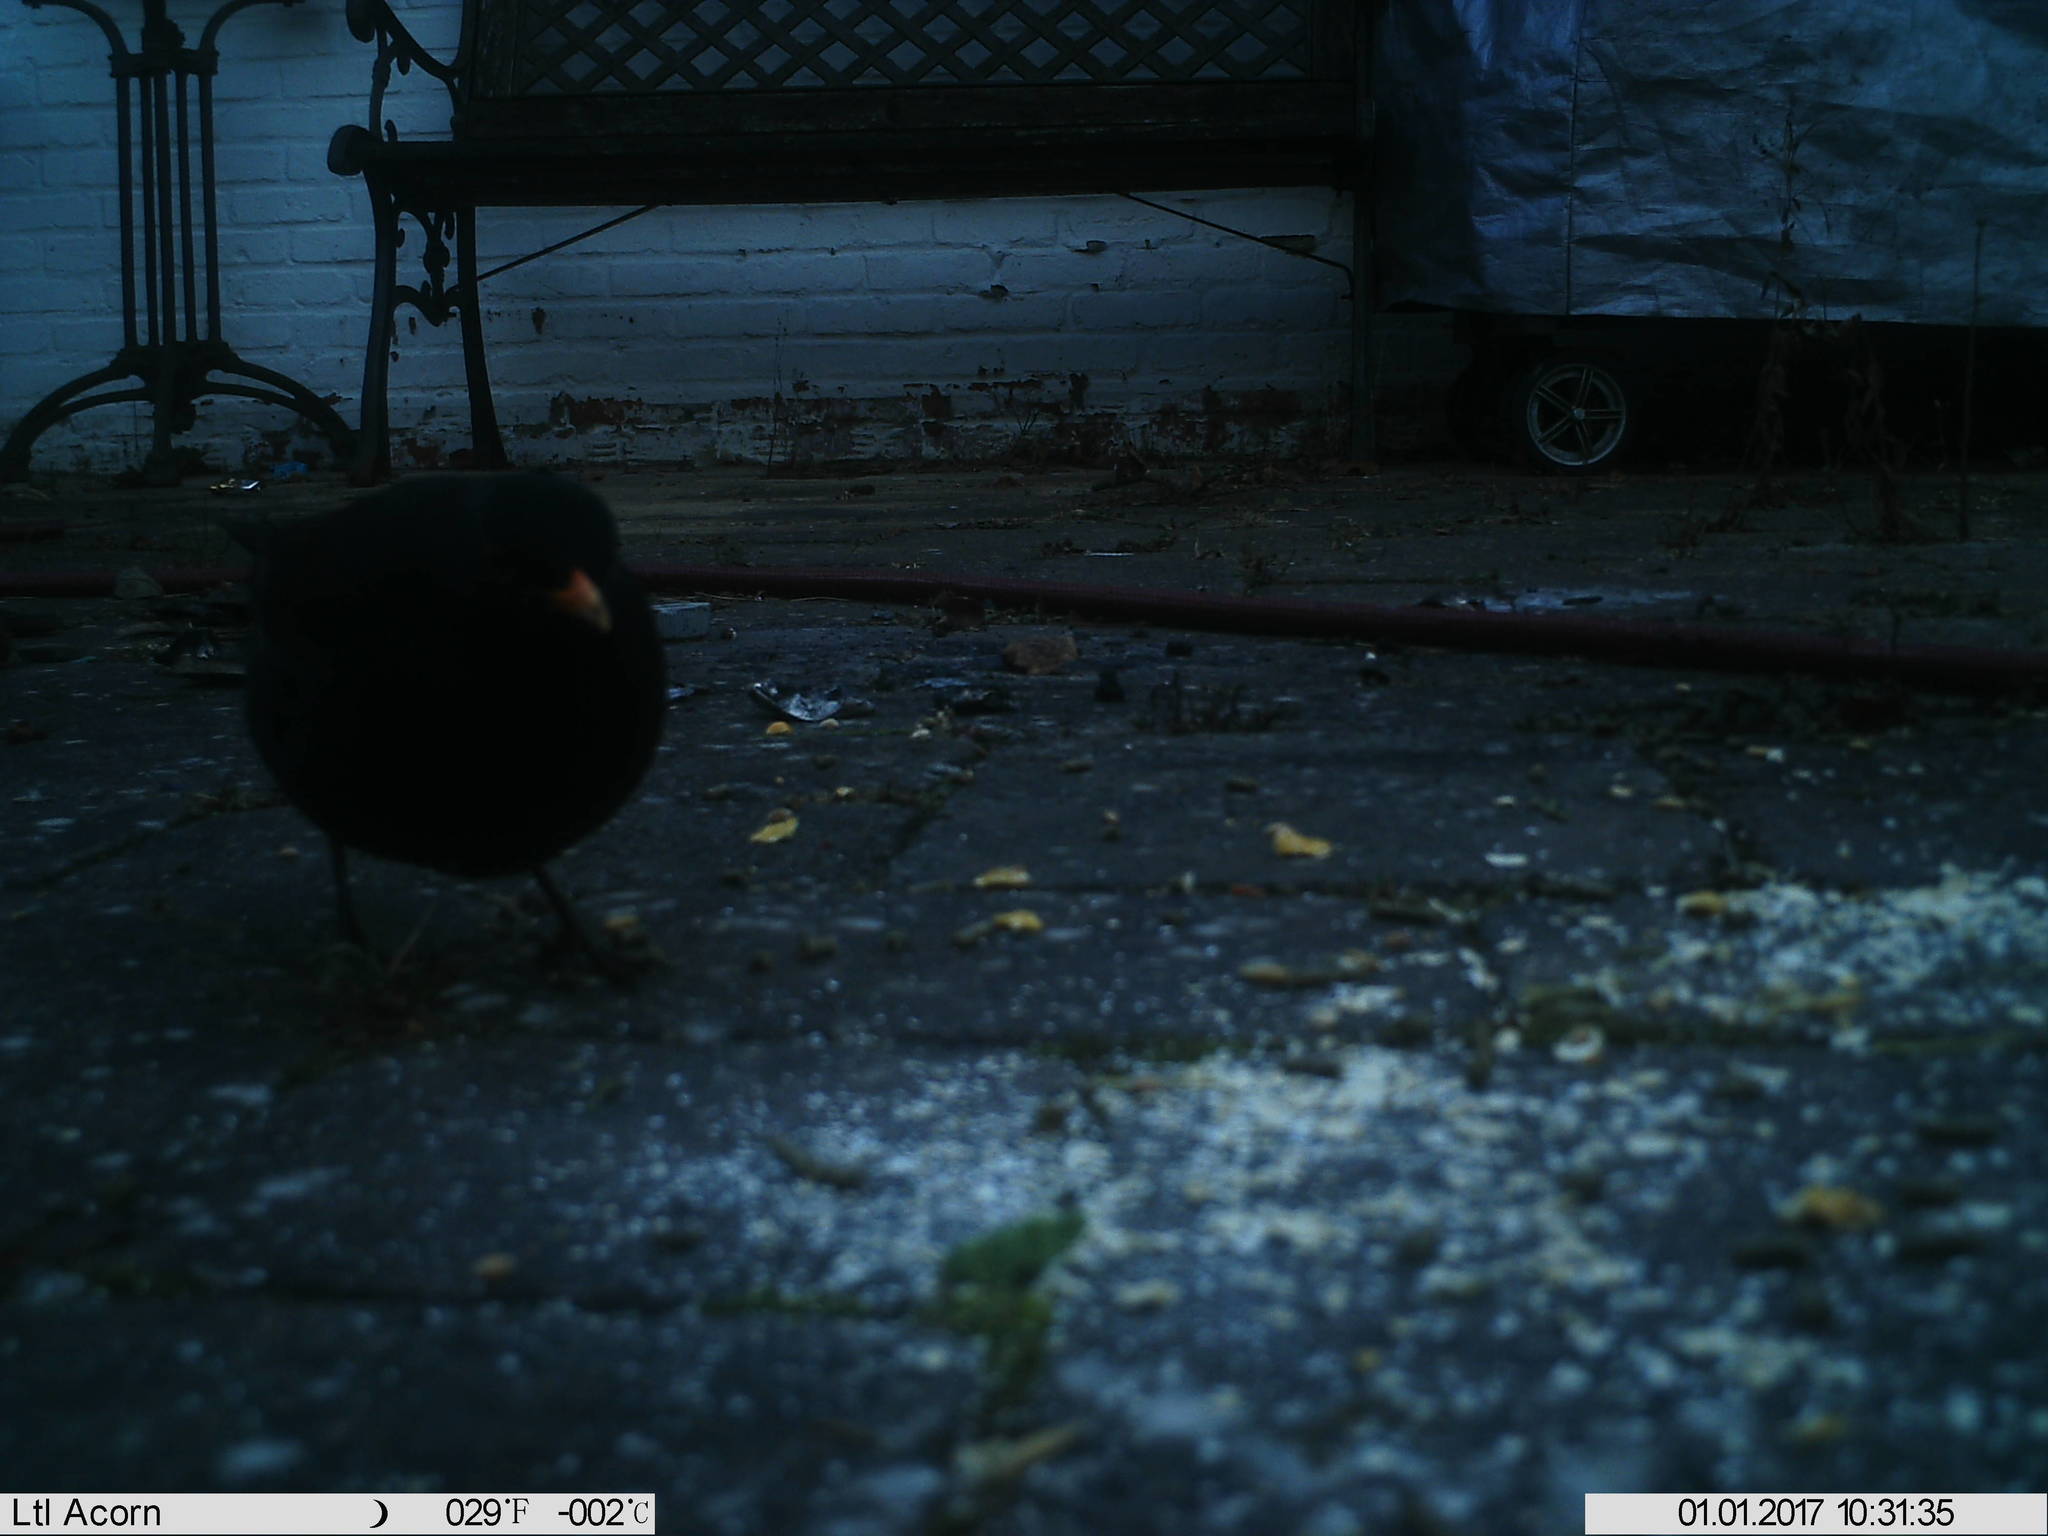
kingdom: Animalia
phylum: Chordata
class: Aves
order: Passeriformes
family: Turdidae
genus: Turdus
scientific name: Turdus merula
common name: Common blackbird
